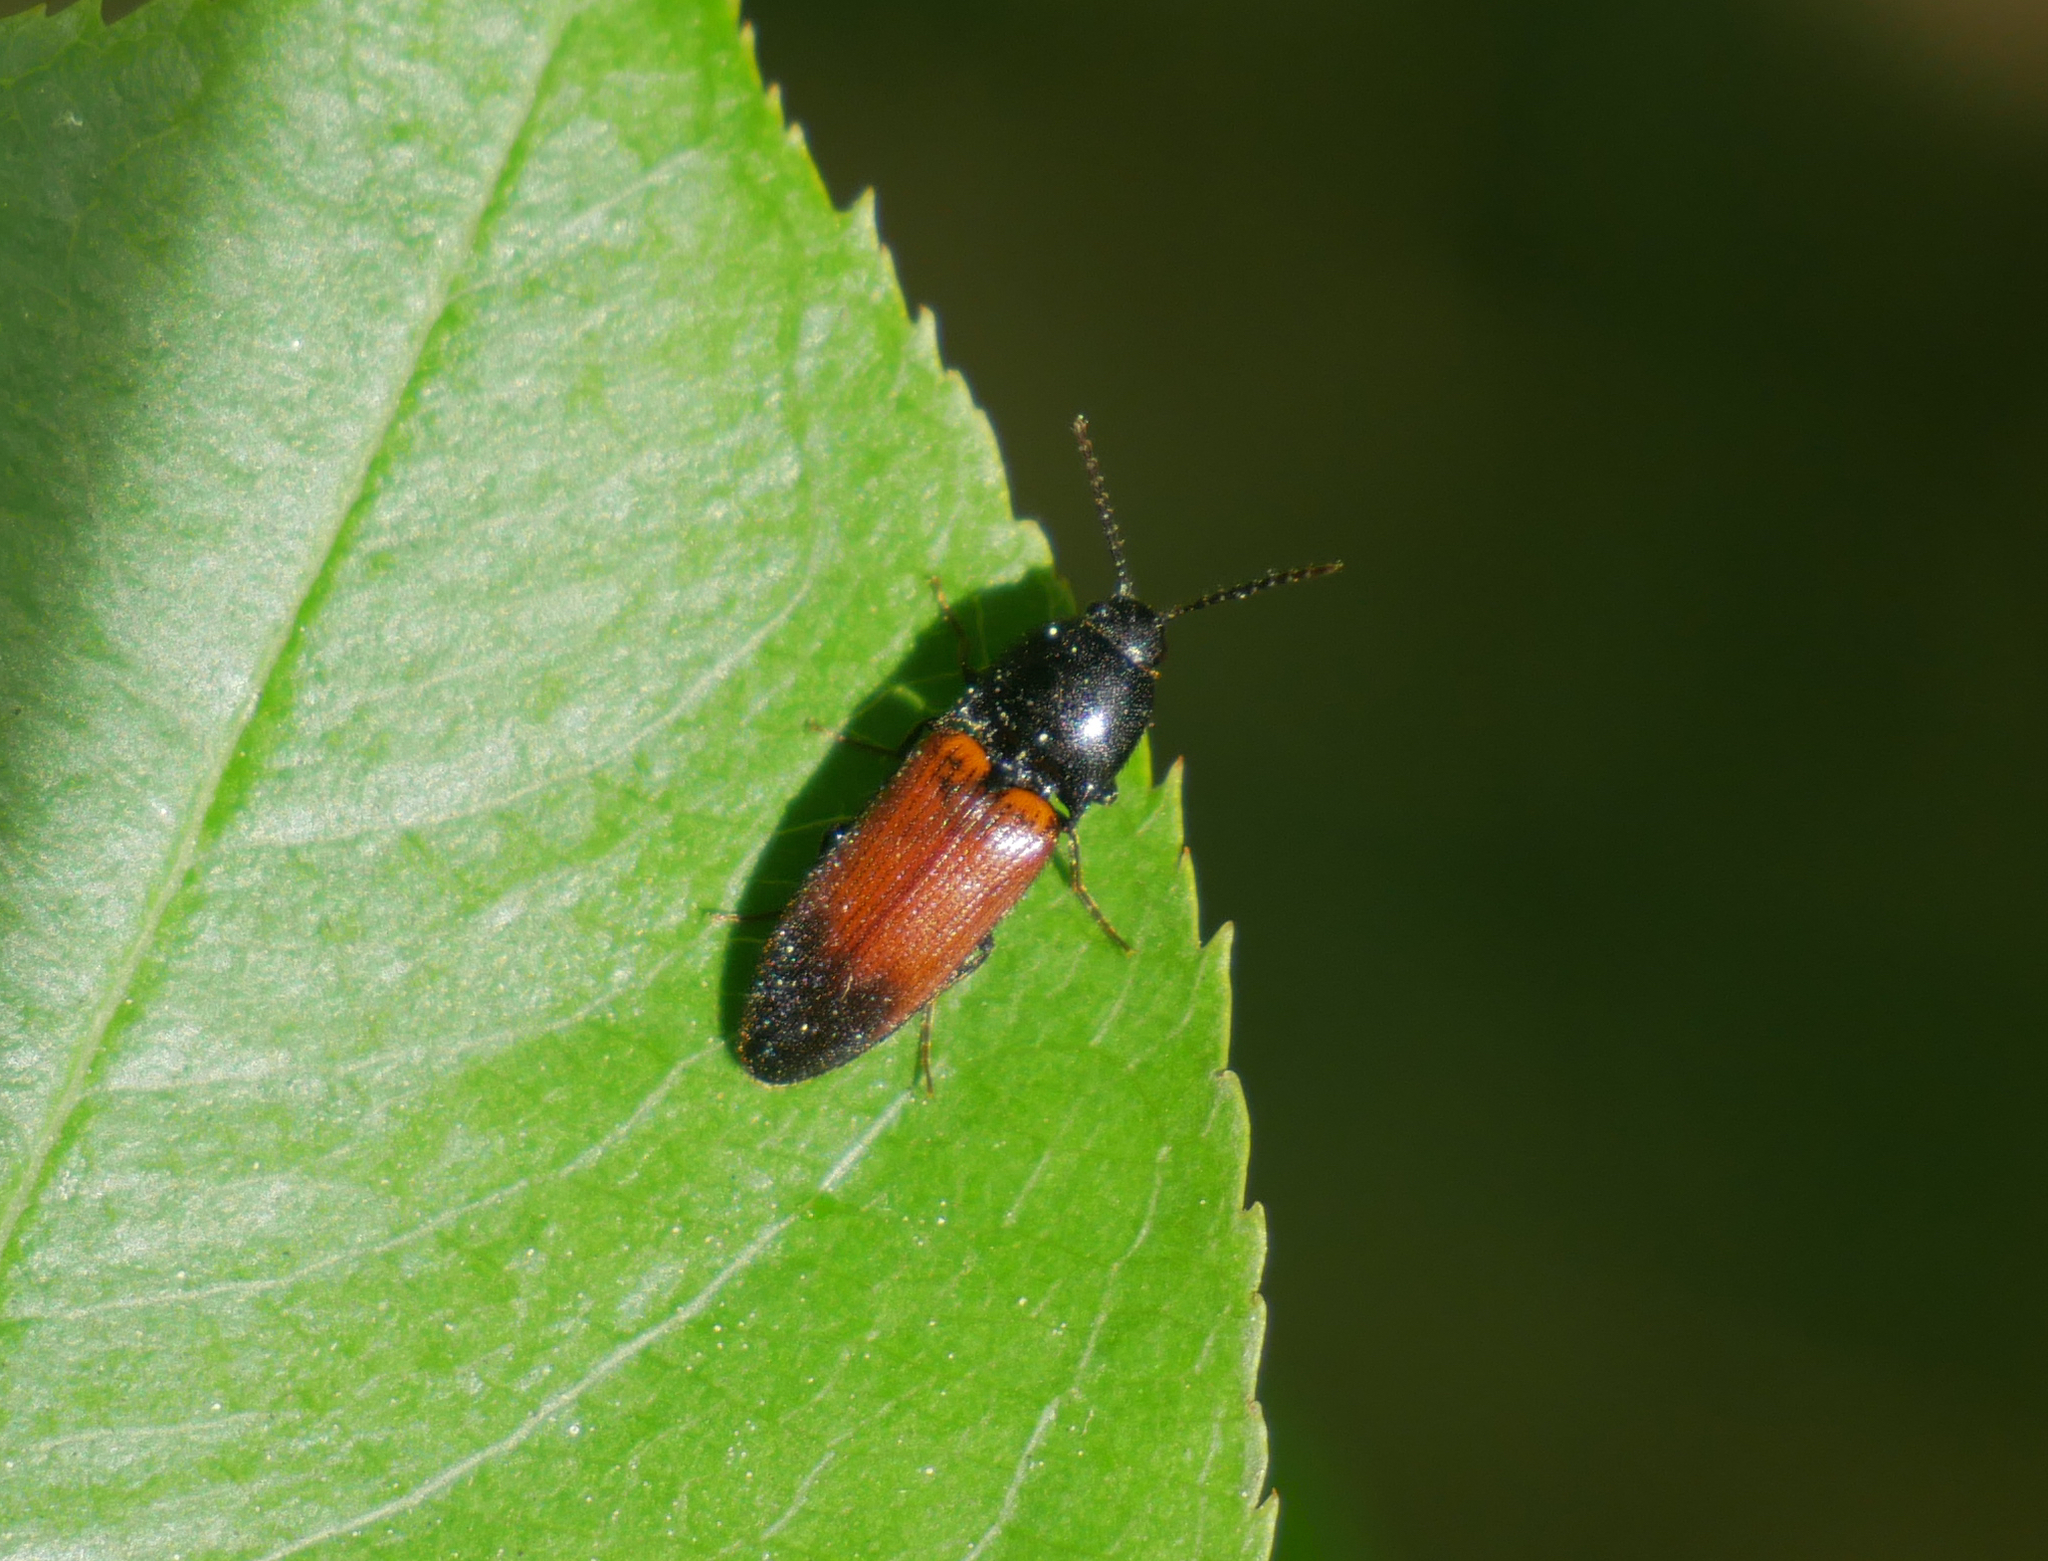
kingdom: Animalia
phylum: Arthropoda
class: Insecta
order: Coleoptera
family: Elateridae
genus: Ampedus
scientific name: Ampedus balteatus
